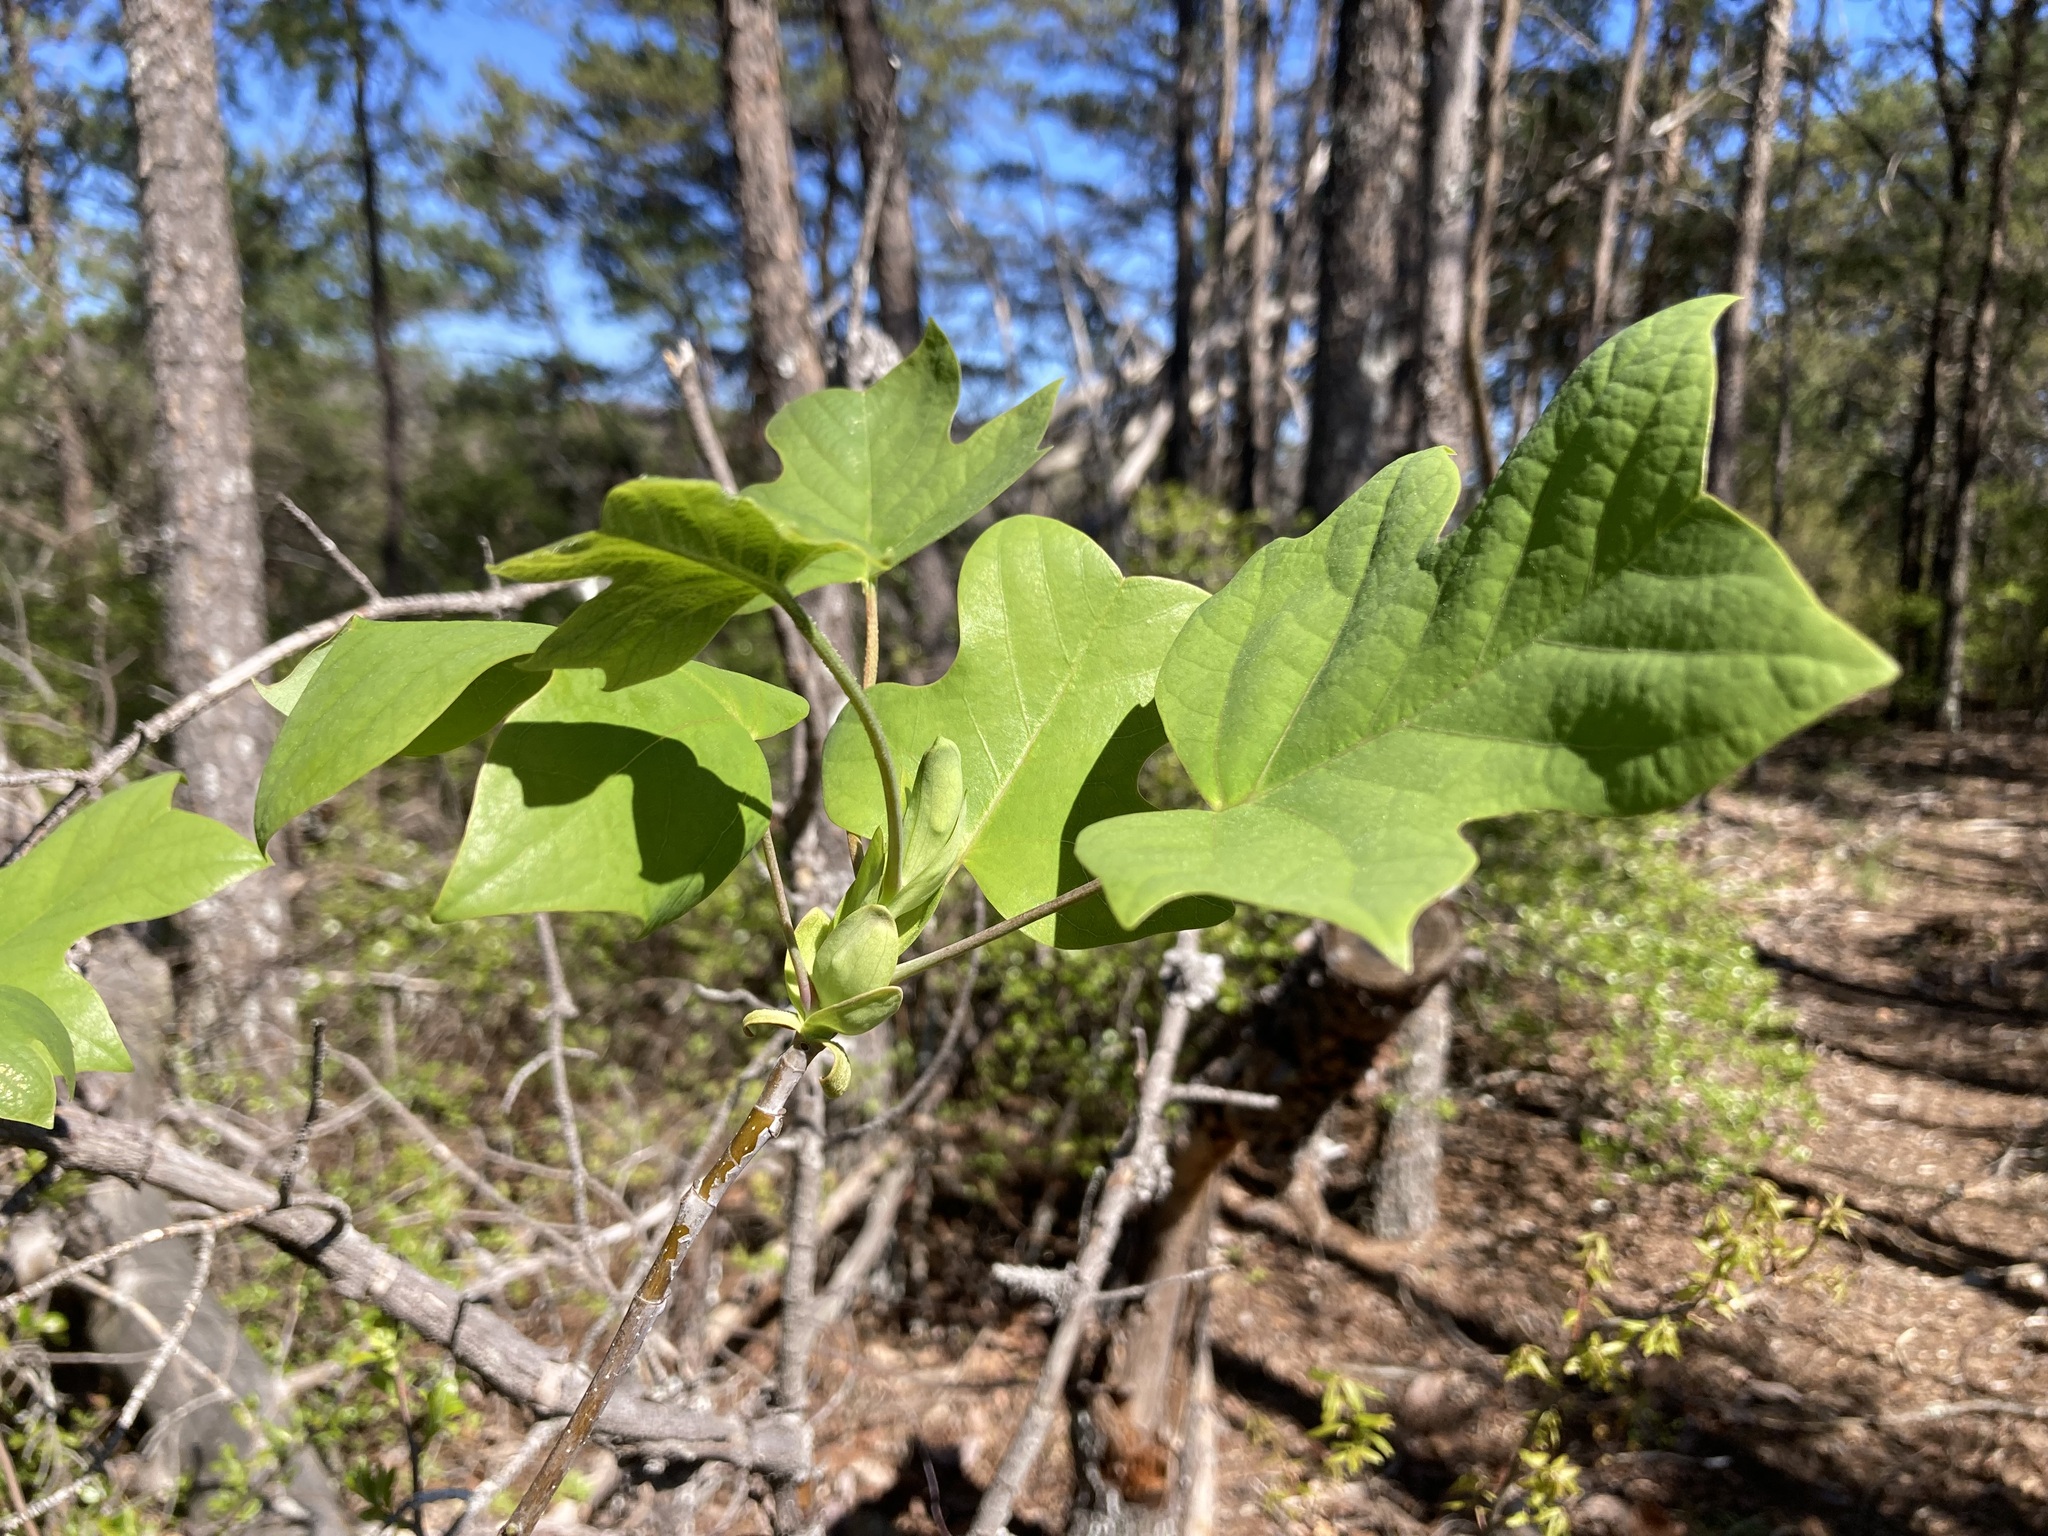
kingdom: Plantae
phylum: Tracheophyta
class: Magnoliopsida
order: Magnoliales
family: Magnoliaceae
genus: Liriodendron
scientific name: Liriodendron tulipifera
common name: Tulip tree
